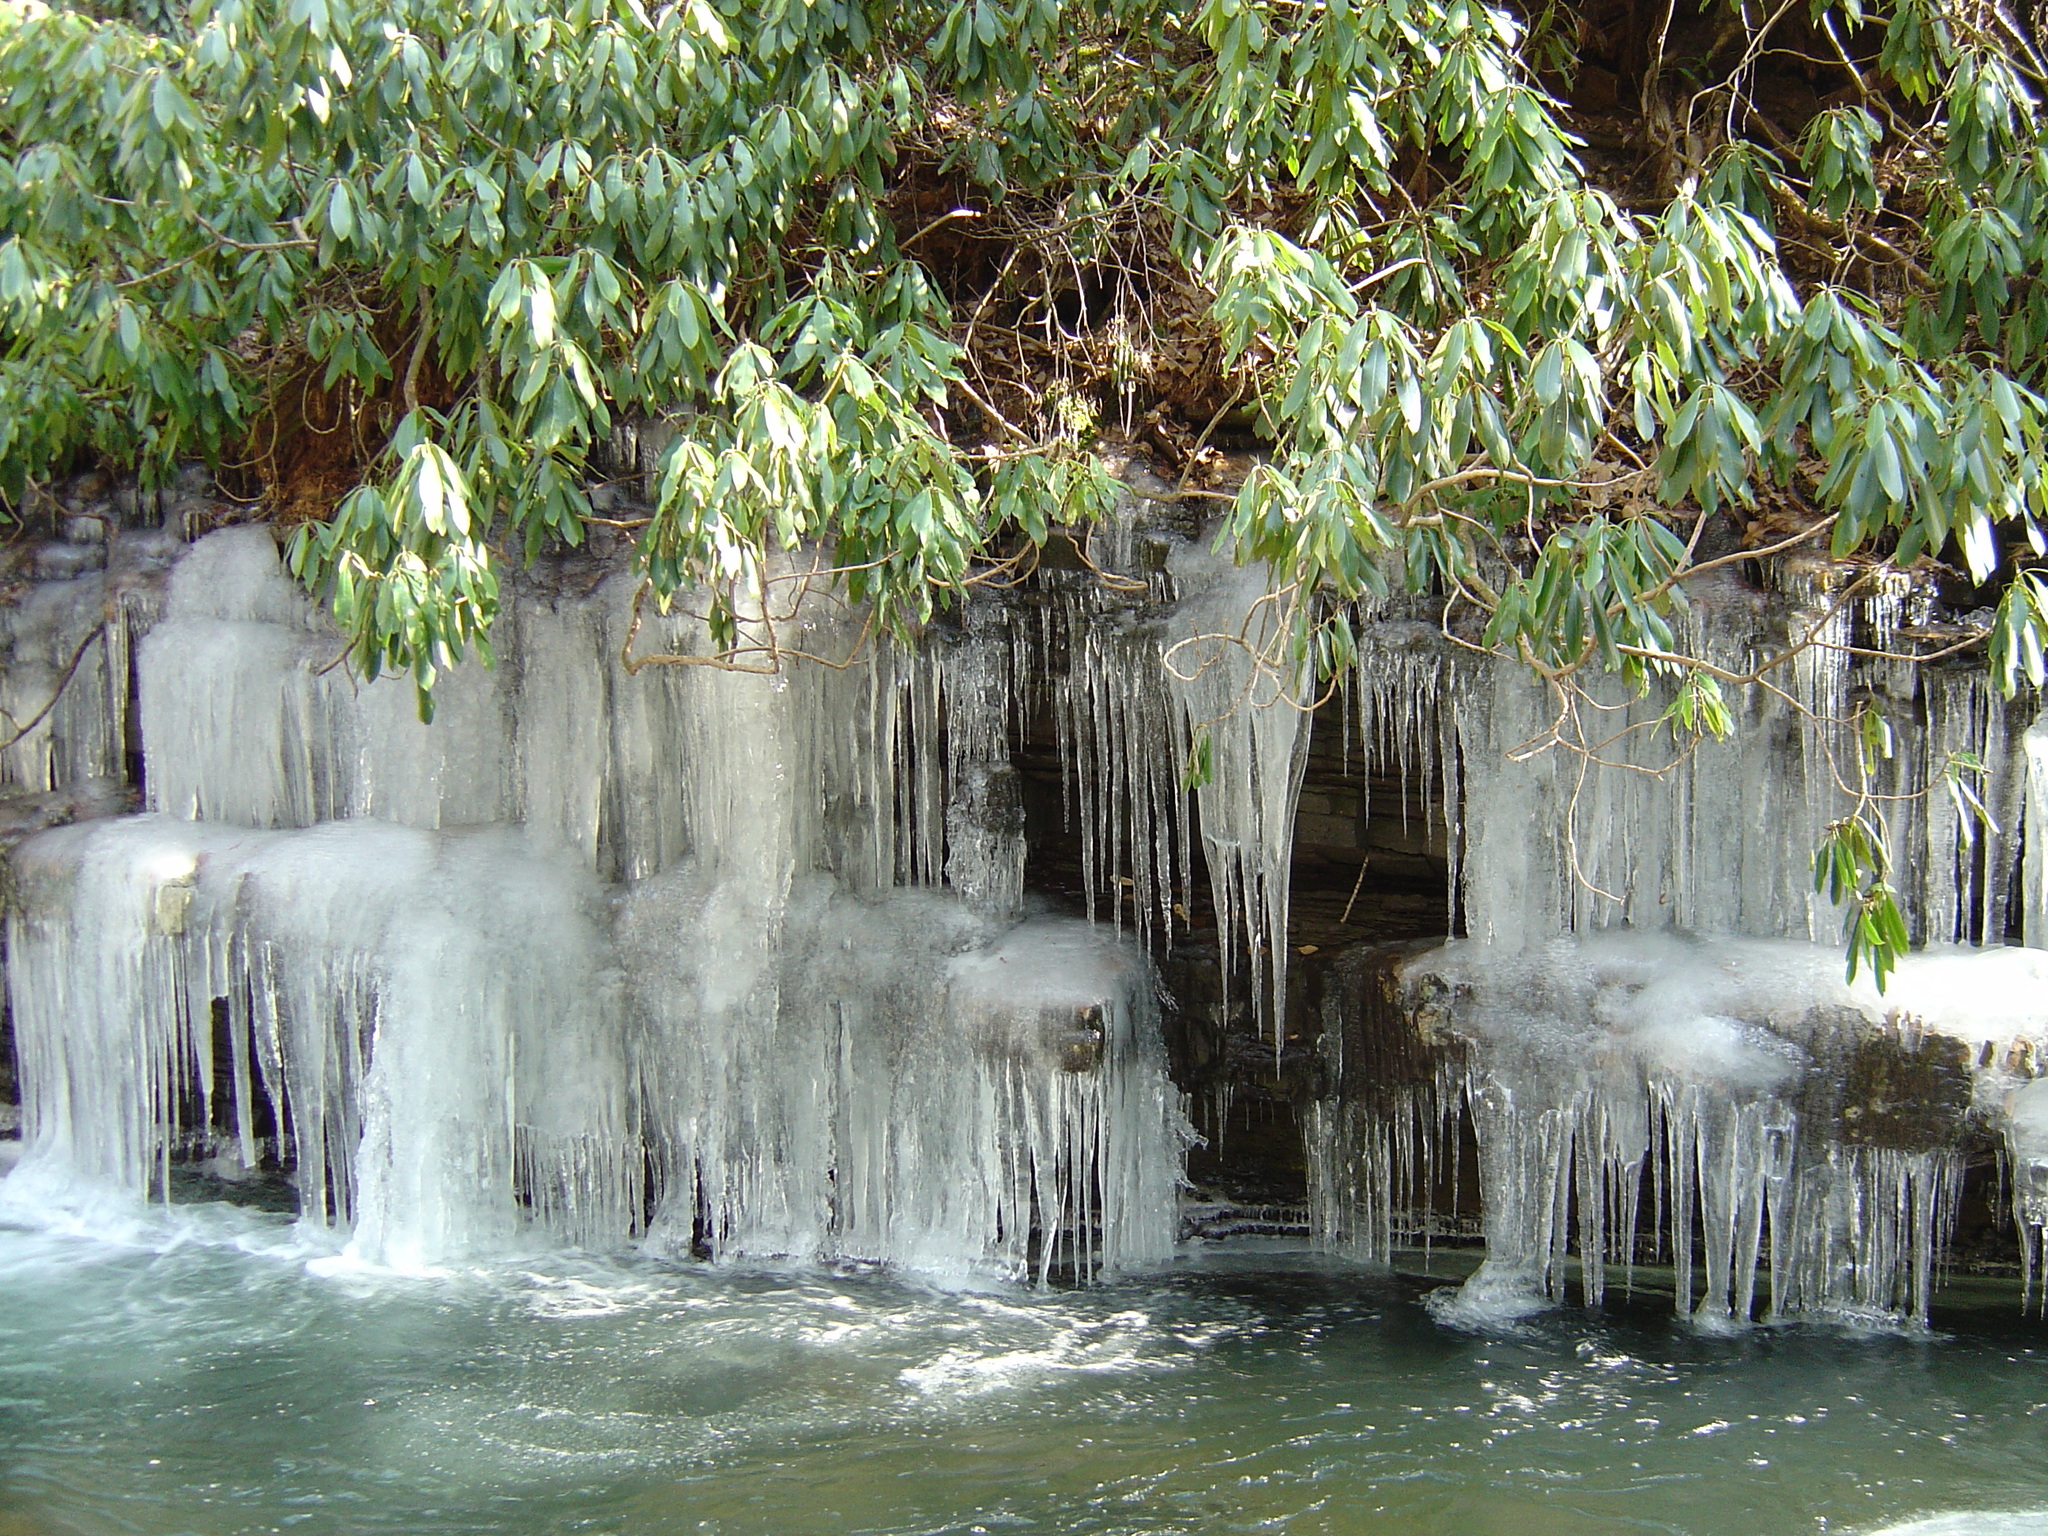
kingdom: Plantae
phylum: Tracheophyta
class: Magnoliopsida
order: Ericales
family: Ericaceae
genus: Rhododendron
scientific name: Rhododendron maximum
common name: Great rhododendron
